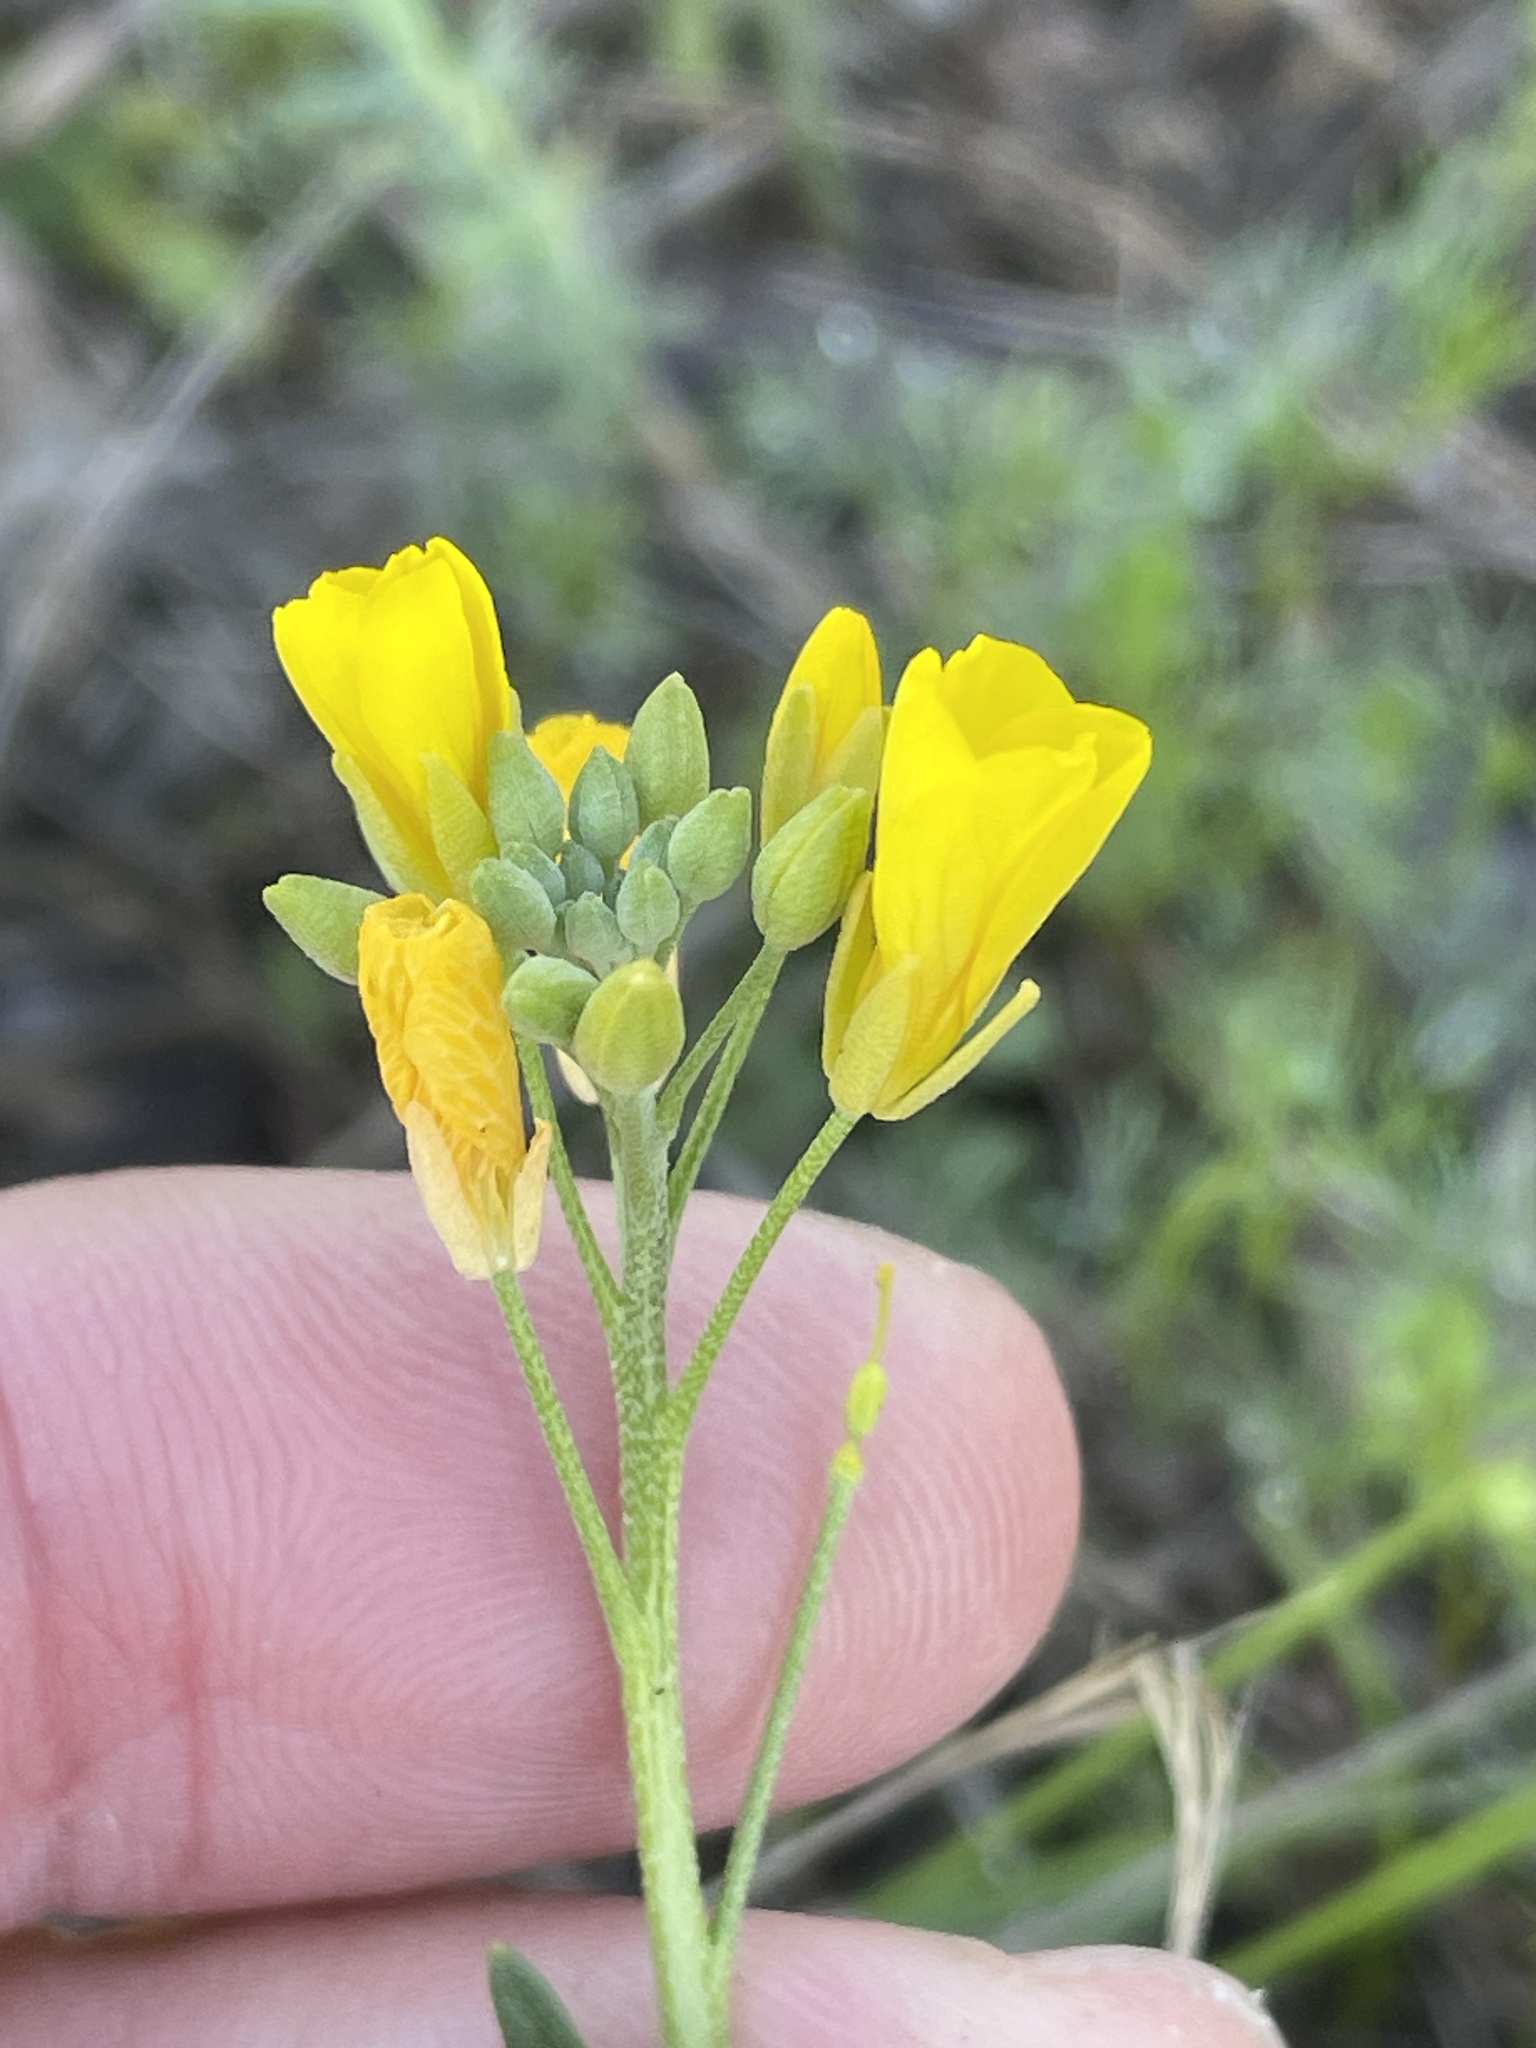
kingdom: Plantae
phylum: Tracheophyta
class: Magnoliopsida
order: Brassicales
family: Brassicaceae
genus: Physaria
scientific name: Physaria gracilis
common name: Spreading bladderpod
